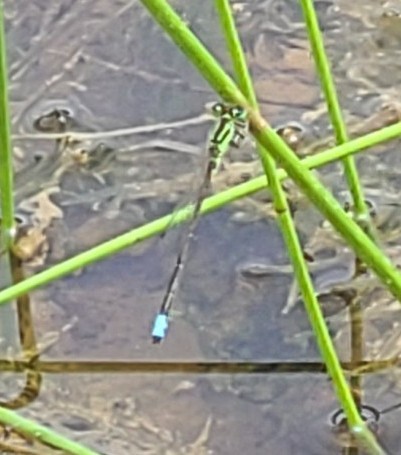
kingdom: Animalia
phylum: Arthropoda
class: Insecta
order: Odonata
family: Coenagrionidae
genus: Ischnura
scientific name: Ischnura verticalis
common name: Eastern forktail
